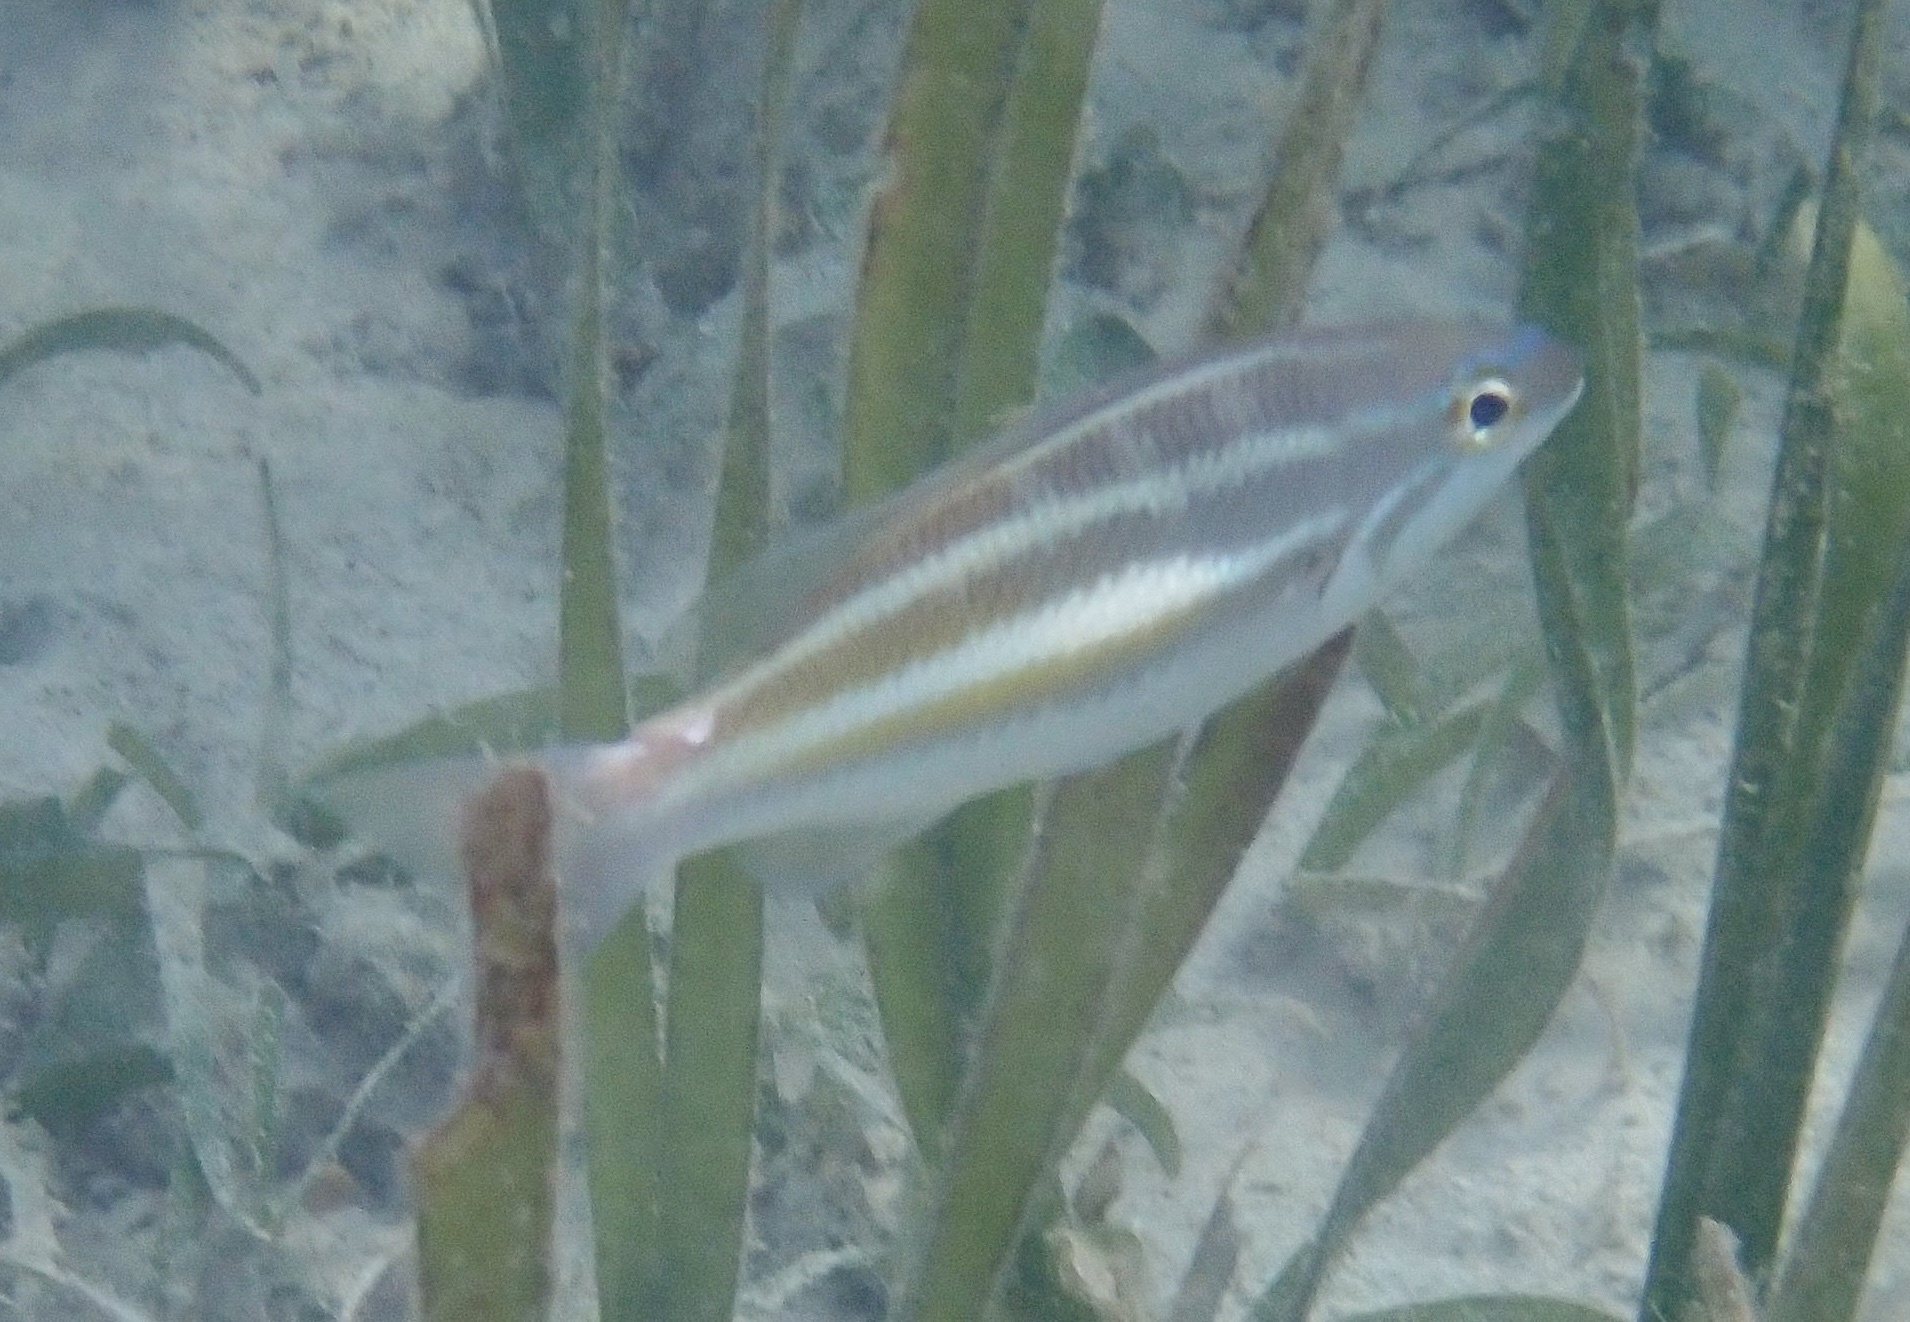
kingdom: Animalia
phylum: Chordata
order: Perciformes
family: Nemipteridae
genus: Pentapodus
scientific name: Pentapodus trivittatus
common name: Three-striped whiptail
